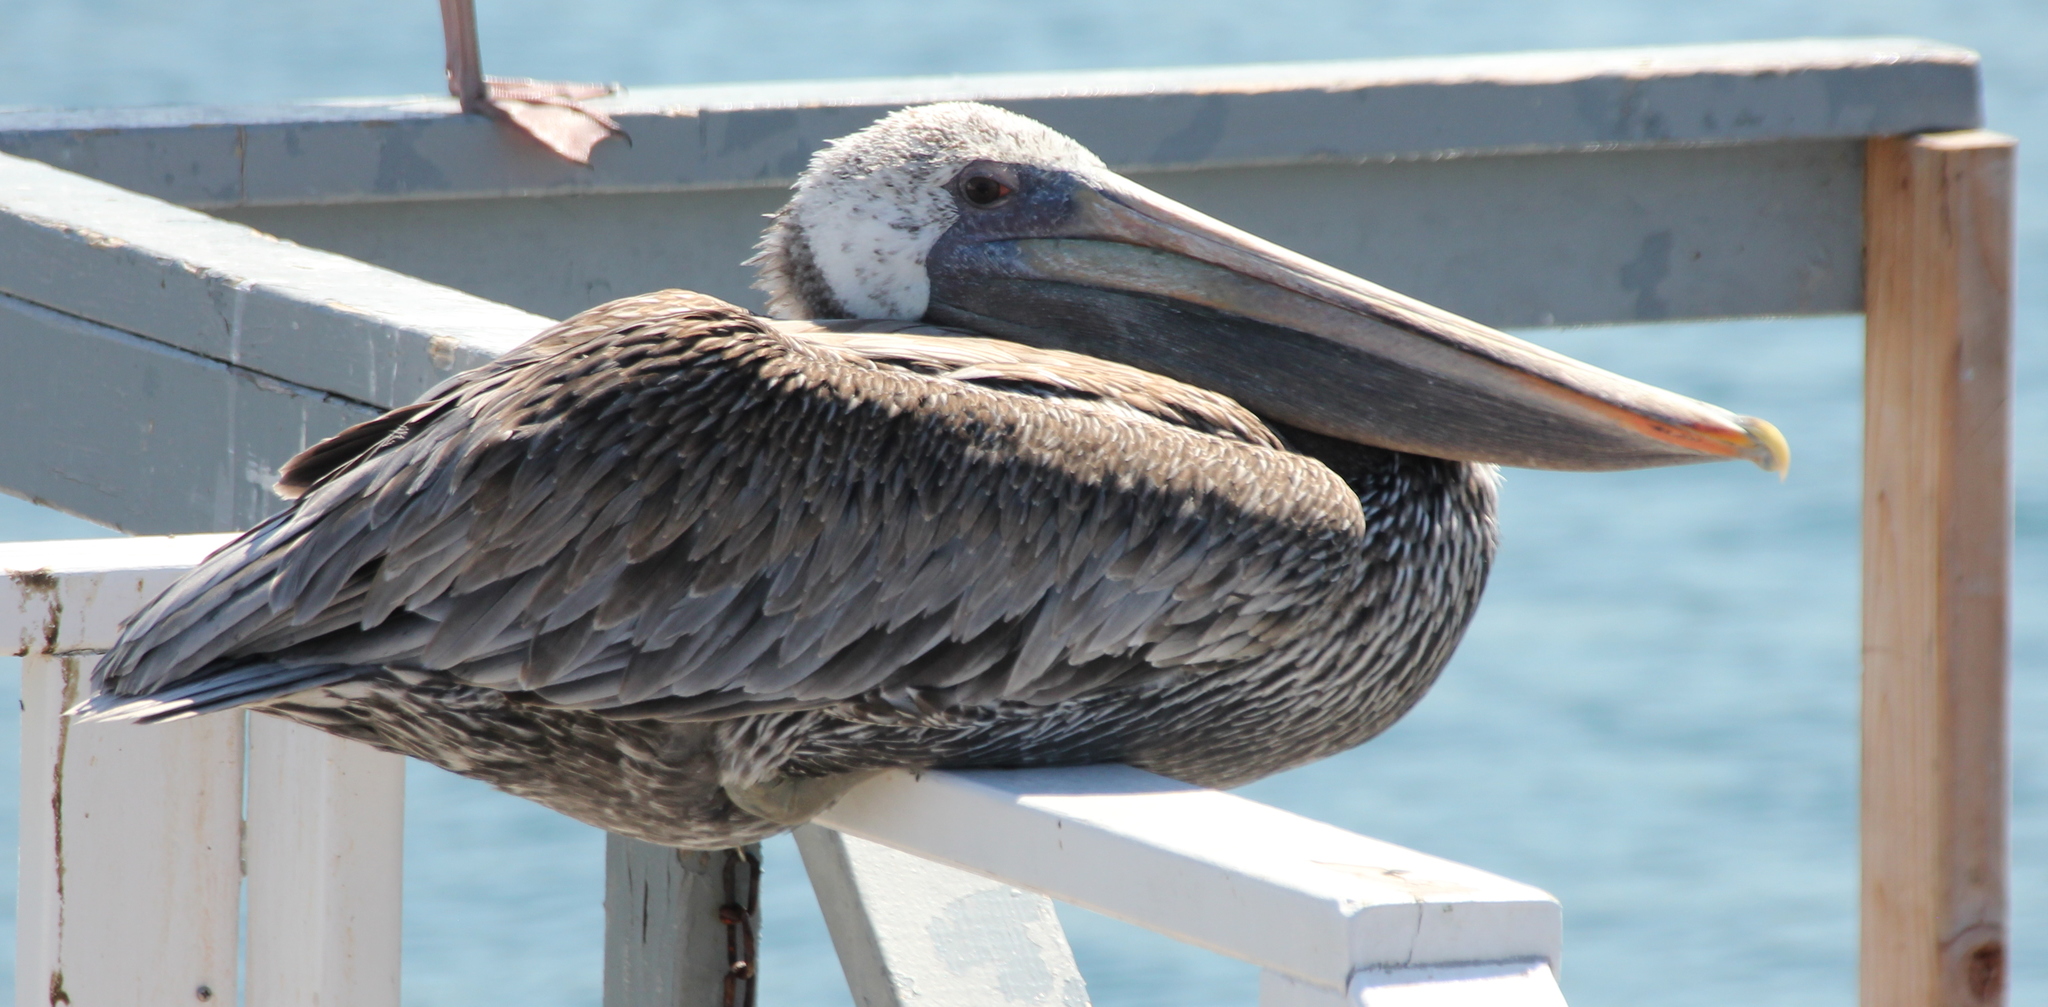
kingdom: Animalia
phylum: Chordata
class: Aves
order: Pelecaniformes
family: Pelecanidae
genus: Pelecanus
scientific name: Pelecanus occidentalis
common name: Brown pelican
